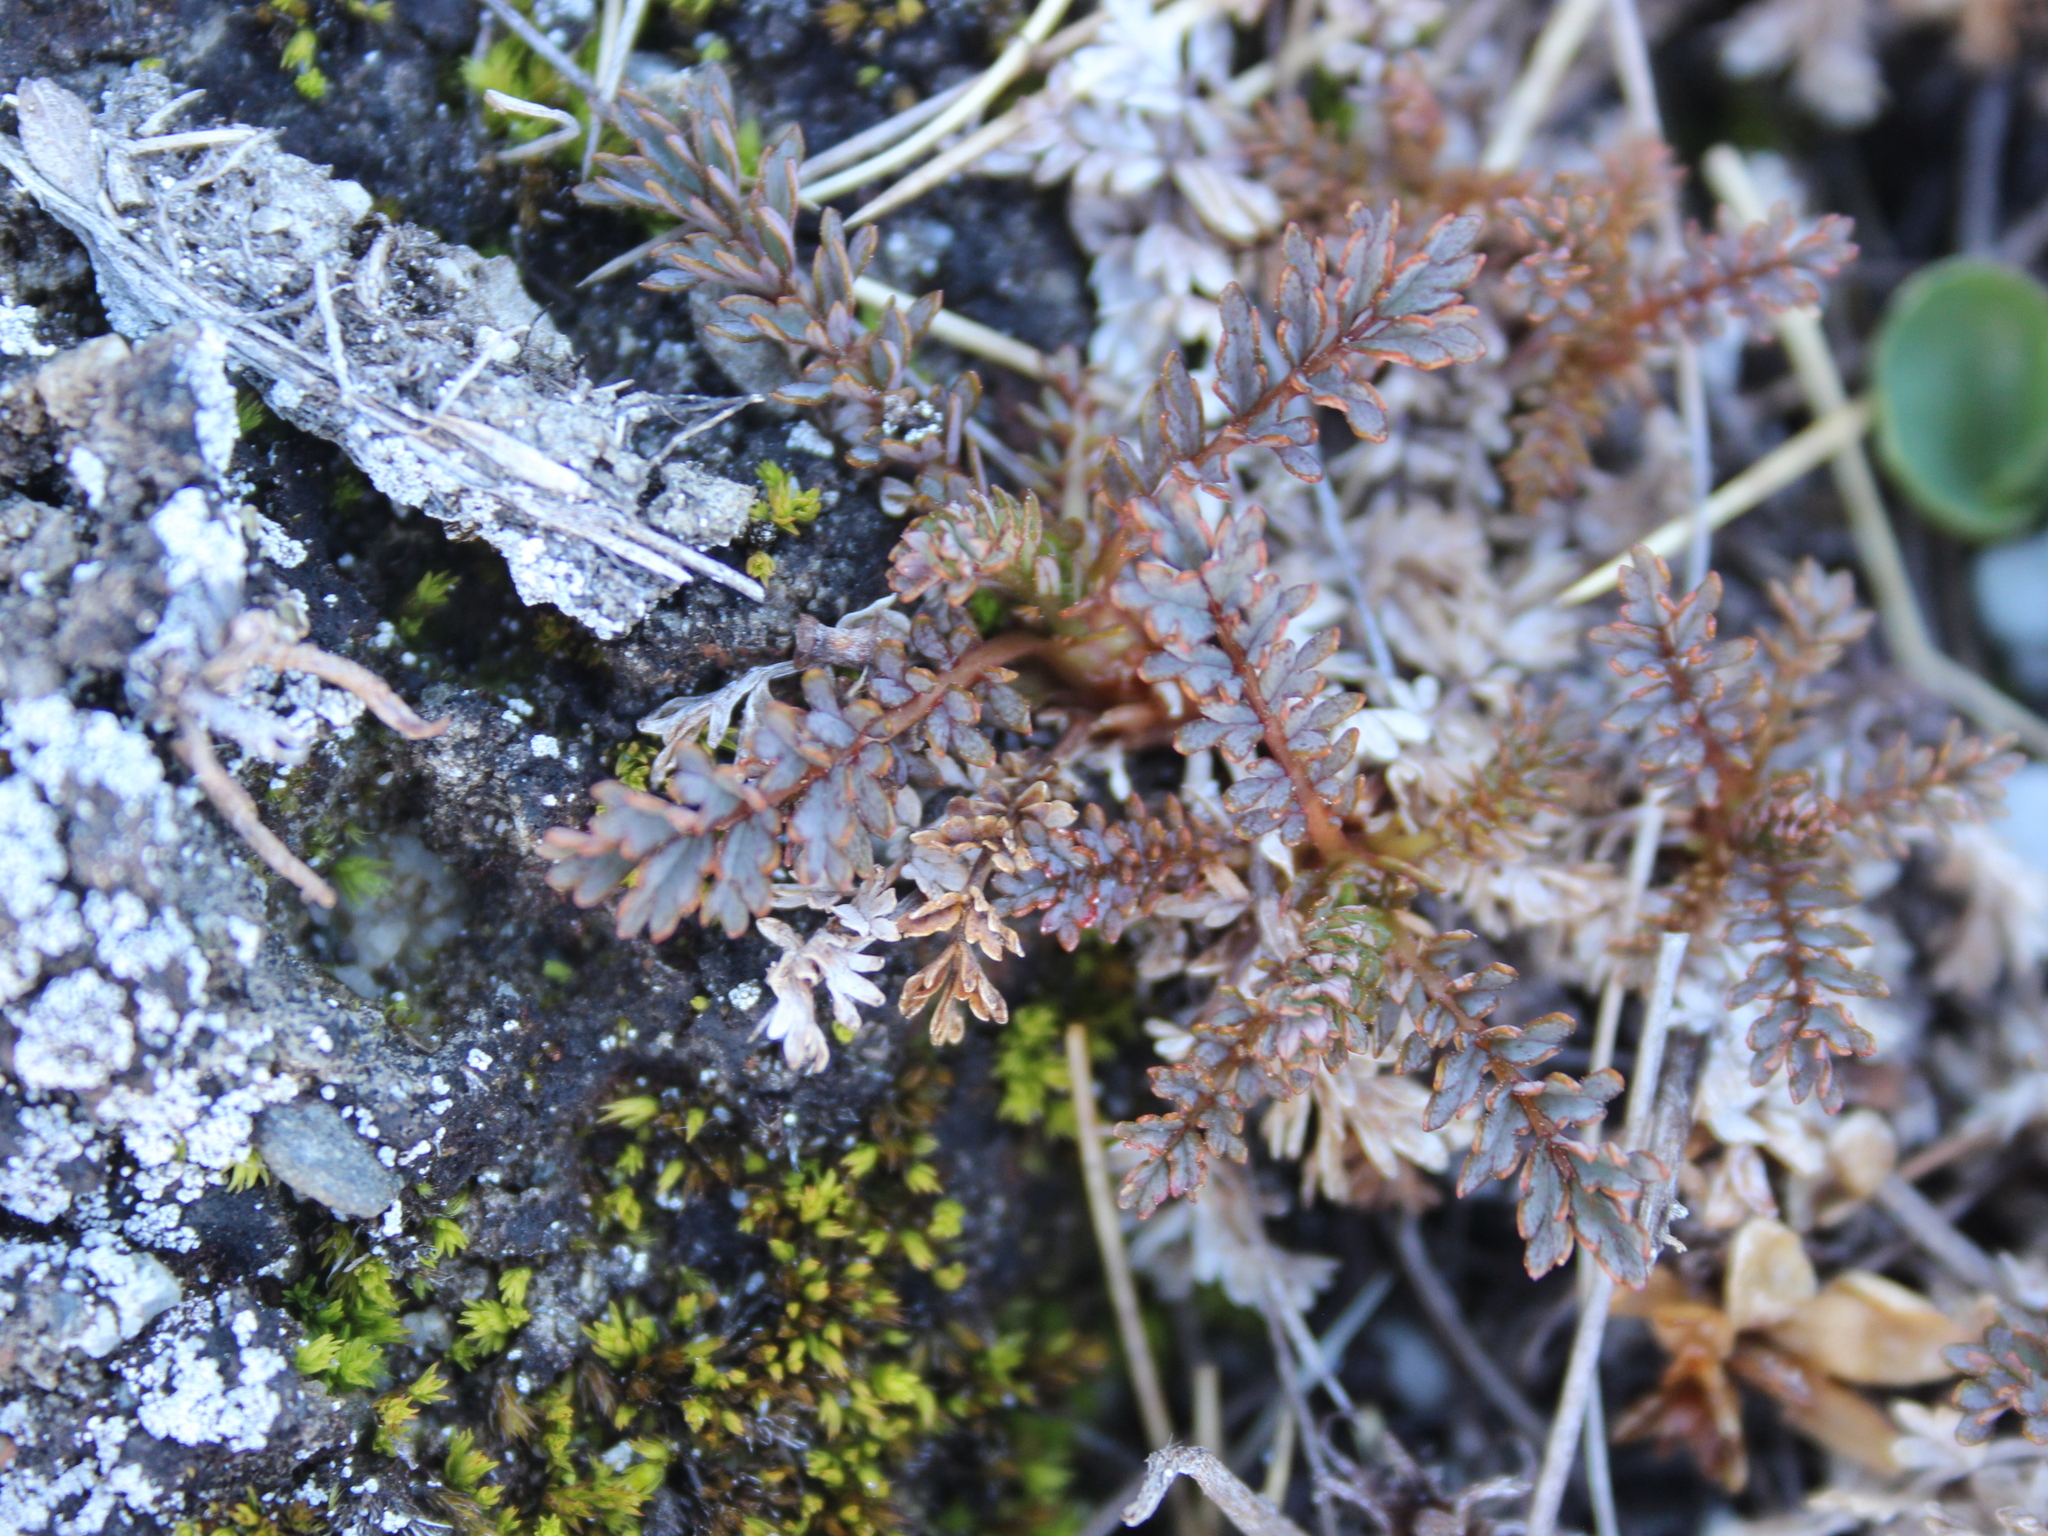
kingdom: Plantae
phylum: Tracheophyta
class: Magnoliopsida
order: Rosales
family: Rosaceae
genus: Acaena
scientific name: Acaena saccaticupula
